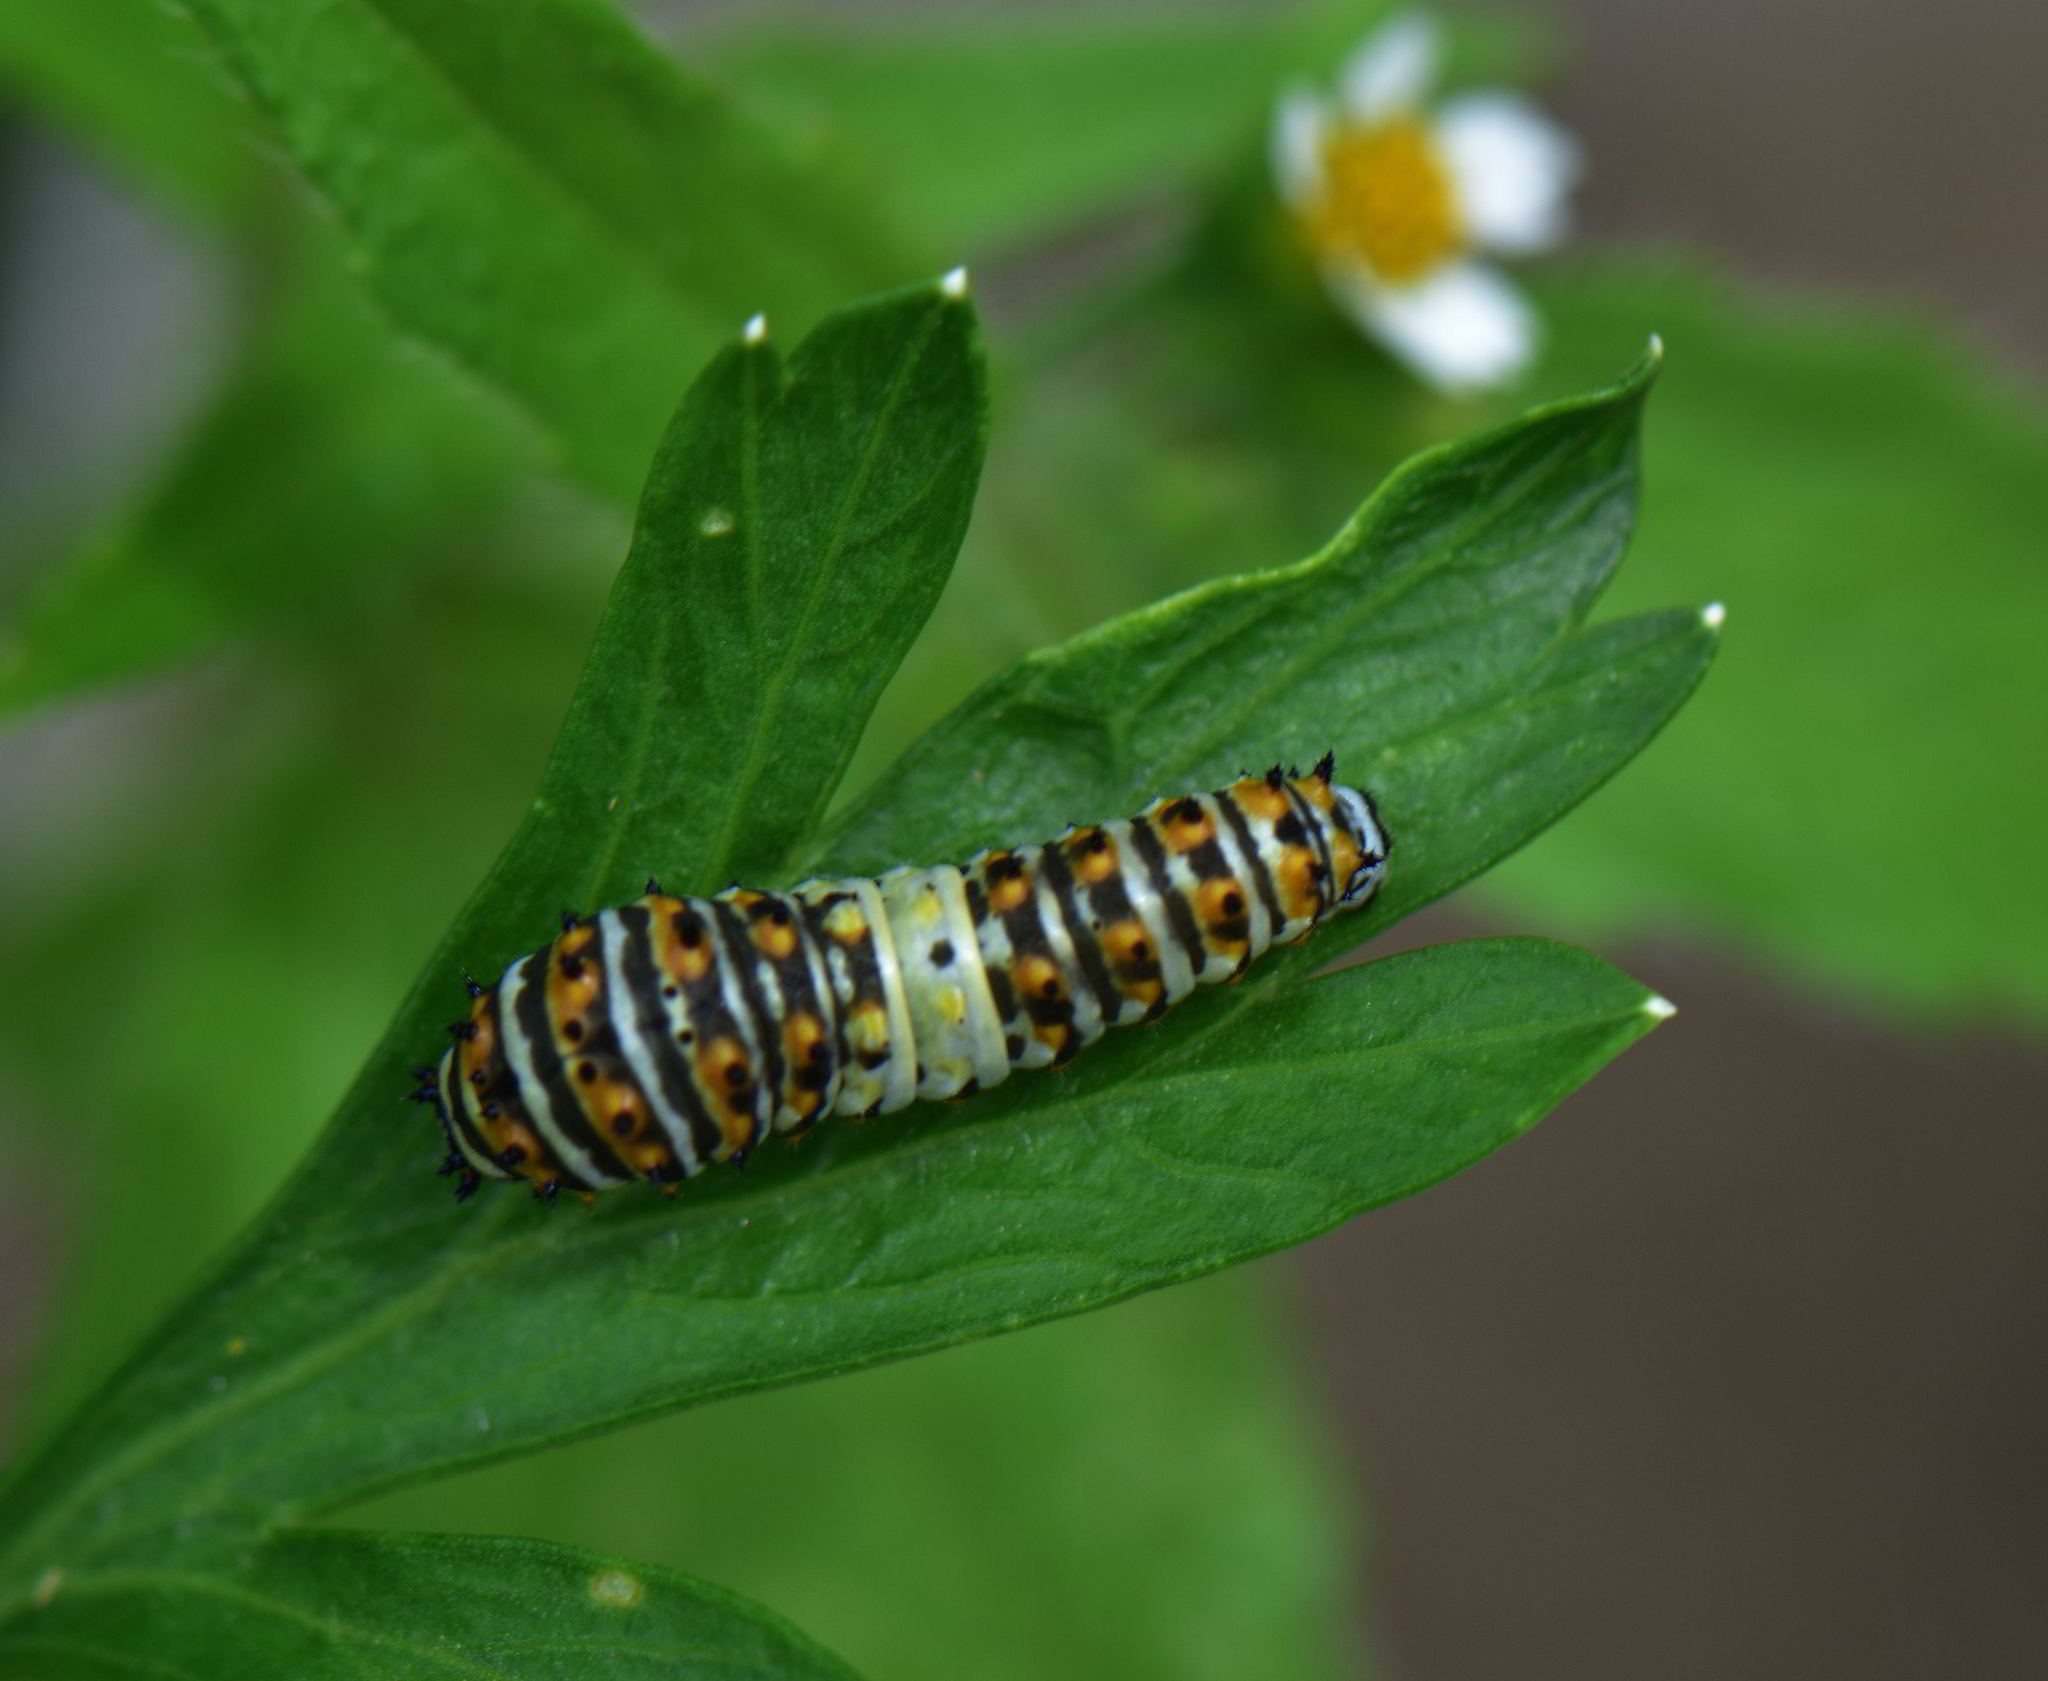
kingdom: Animalia
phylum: Arthropoda
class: Insecta
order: Lepidoptera
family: Papilionidae
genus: Papilio
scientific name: Papilio polyxenes
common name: Black swallowtail
